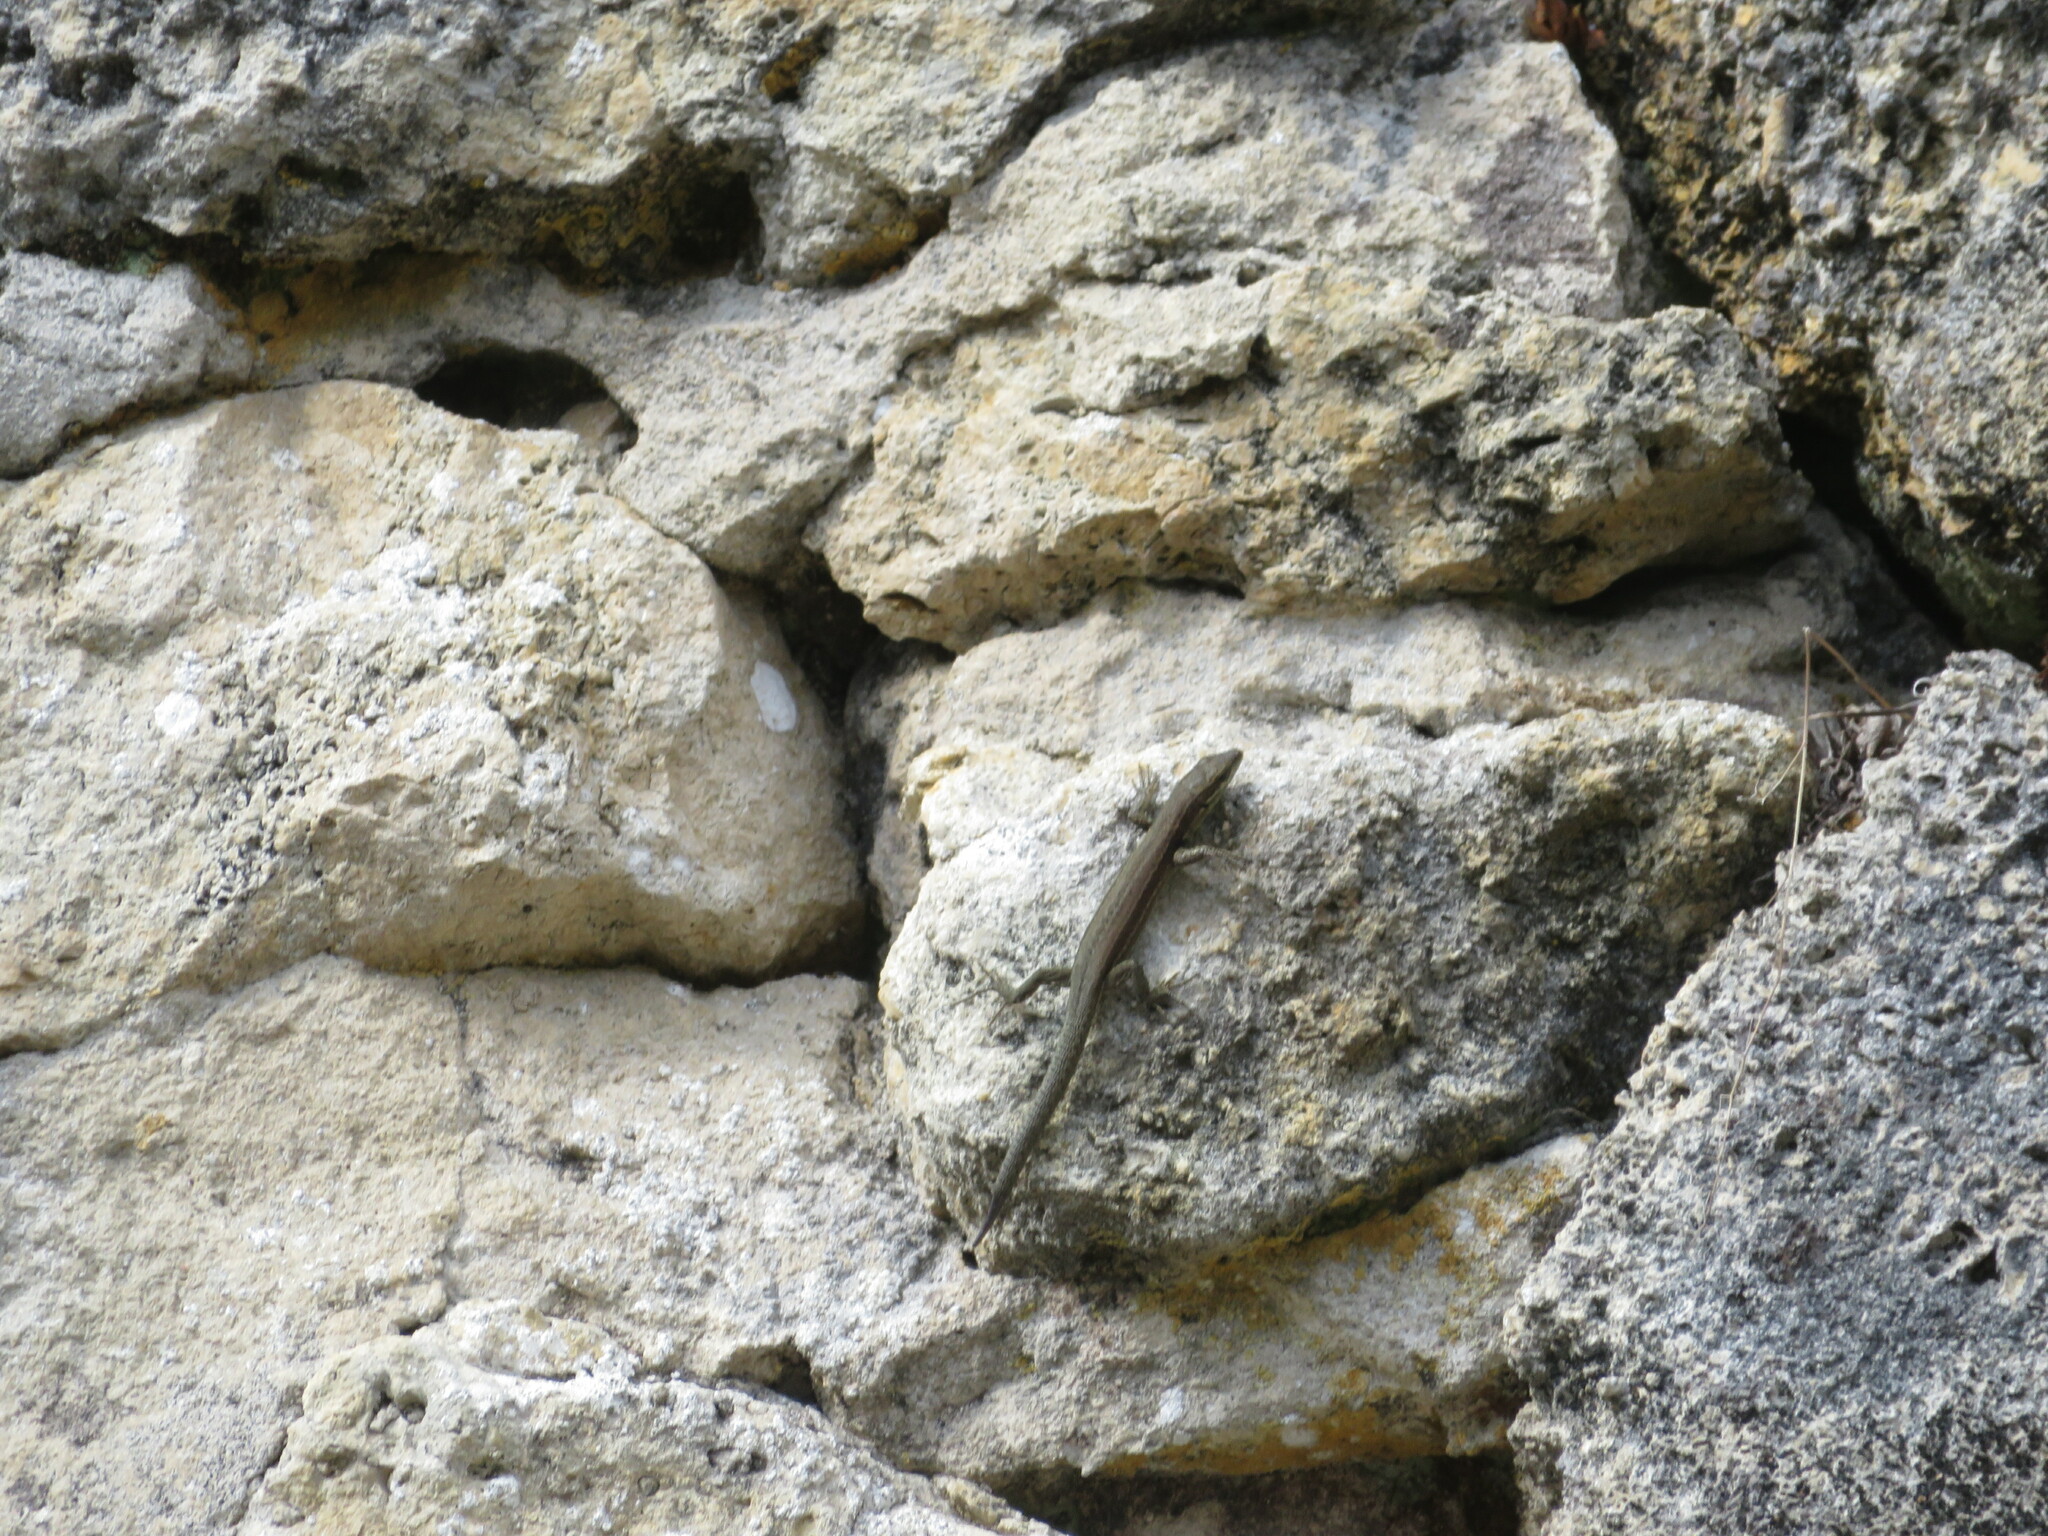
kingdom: Animalia
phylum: Chordata
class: Squamata
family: Lacertidae
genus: Podarcis
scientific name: Podarcis muralis
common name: Common wall lizard
